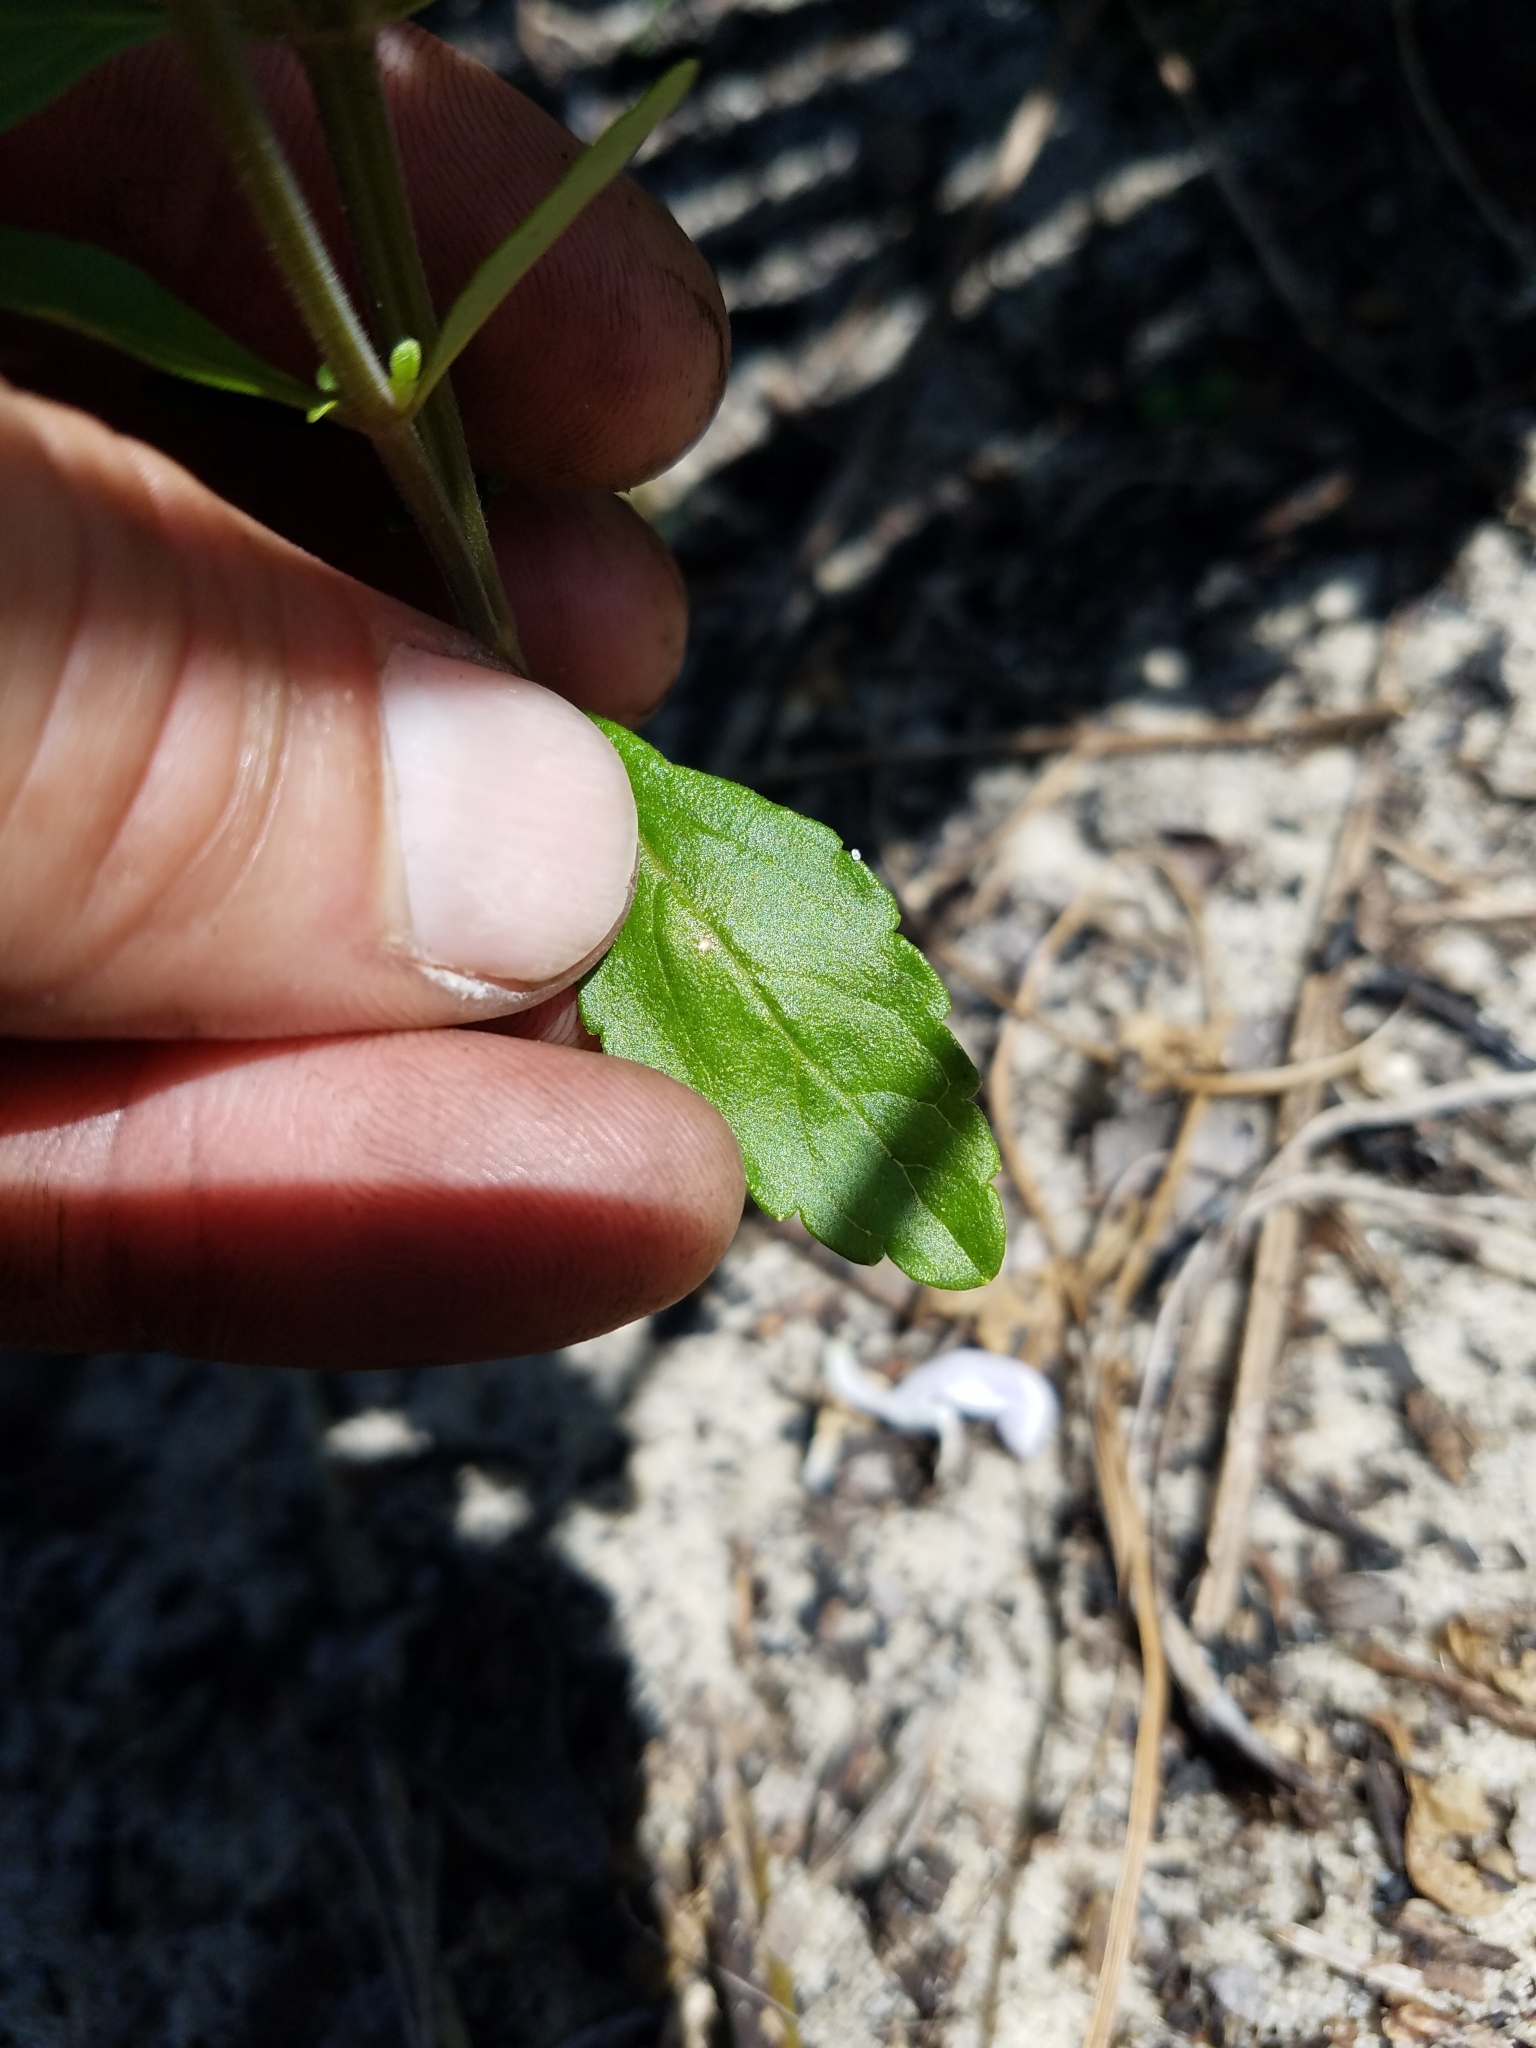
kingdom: Plantae
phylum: Tracheophyta
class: Magnoliopsida
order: Lamiales
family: Lamiaceae
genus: Scutellaria
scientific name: Scutellaria arenicola
